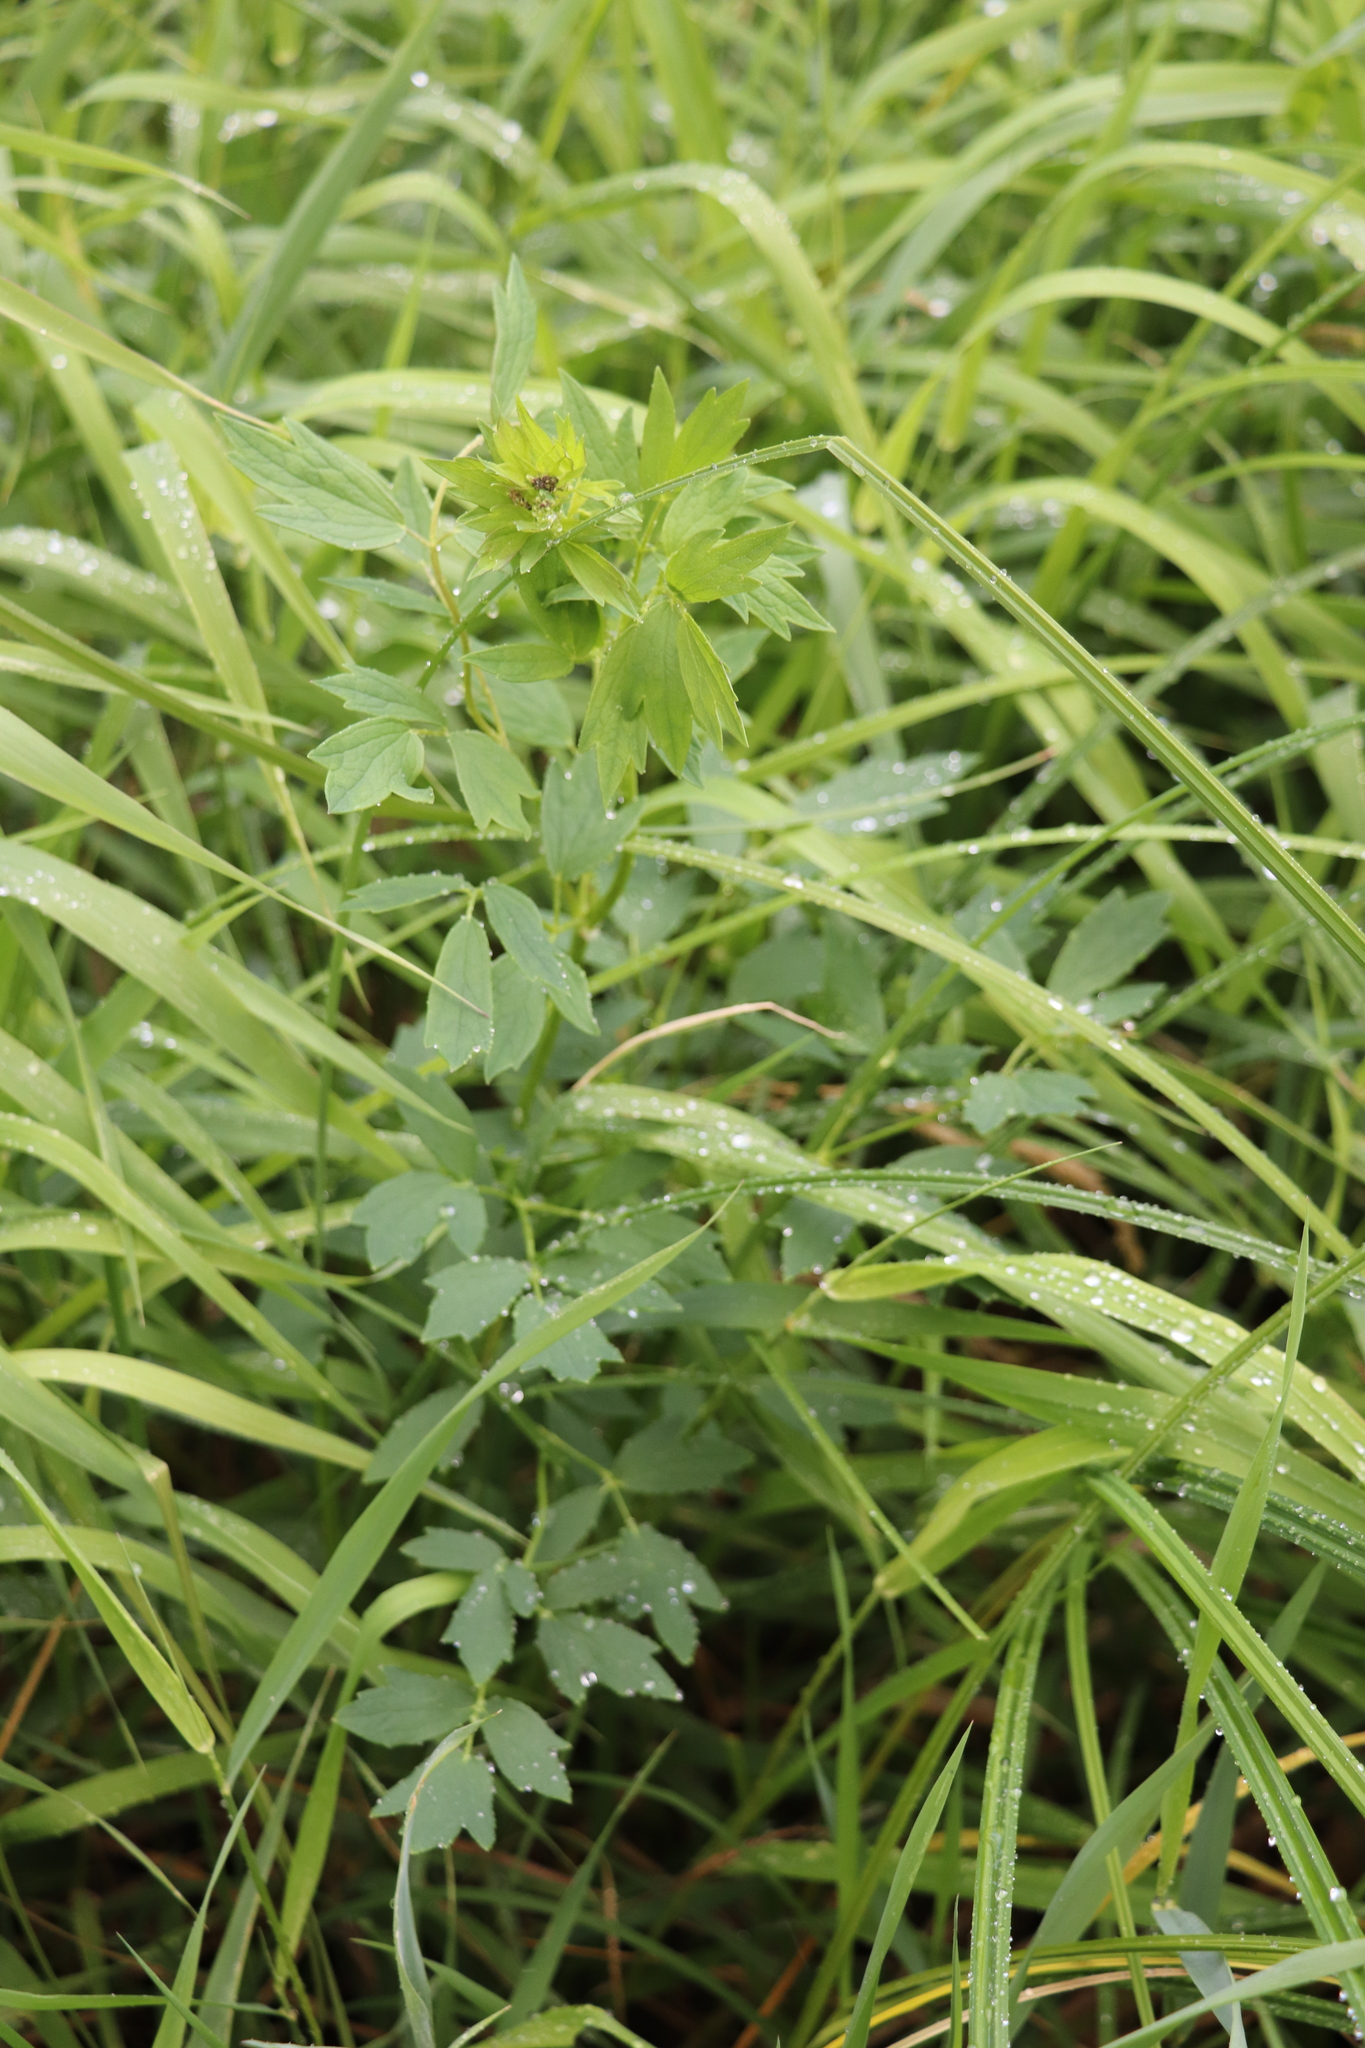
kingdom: Plantae
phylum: Tracheophyta
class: Magnoliopsida
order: Ranunculales
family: Ranunculaceae
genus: Thalictrum
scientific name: Thalictrum flavum
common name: Common meadow-rue
